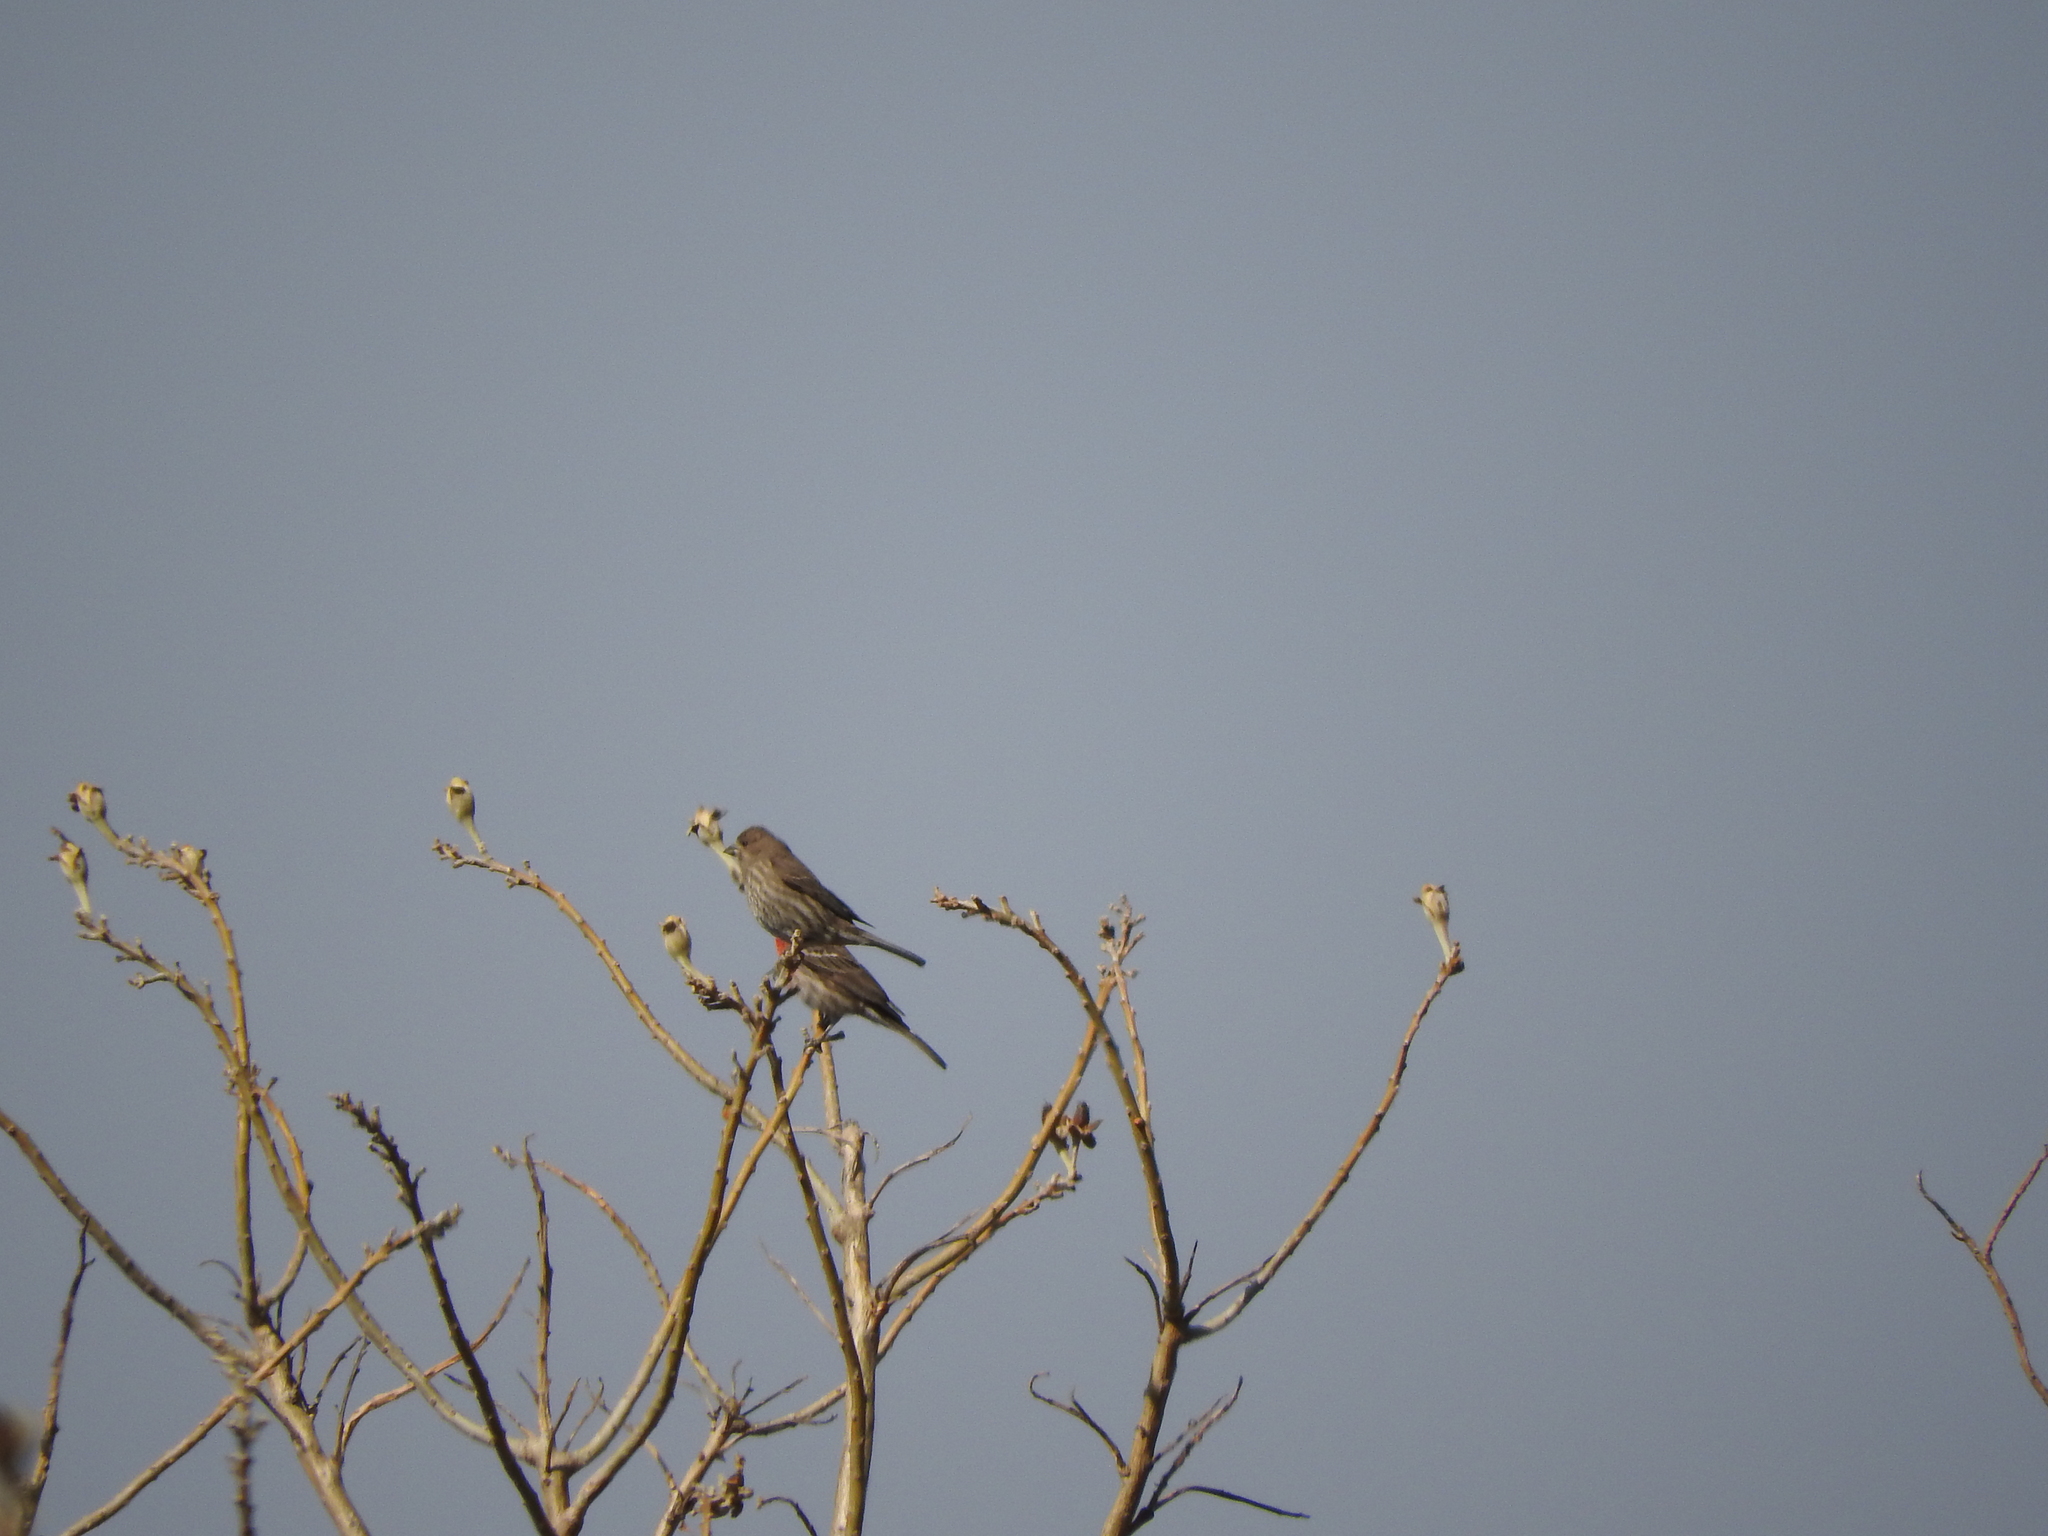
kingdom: Animalia
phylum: Chordata
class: Aves
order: Passeriformes
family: Fringillidae
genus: Haemorhous
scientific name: Haemorhous mexicanus
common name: House finch
